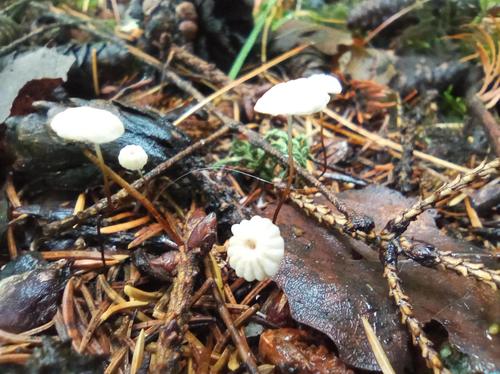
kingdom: Fungi
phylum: Basidiomycota
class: Agaricomycetes
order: Agaricales
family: Marasmiaceae
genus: Marasmius
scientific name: Marasmius rotula
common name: Collared parachute
